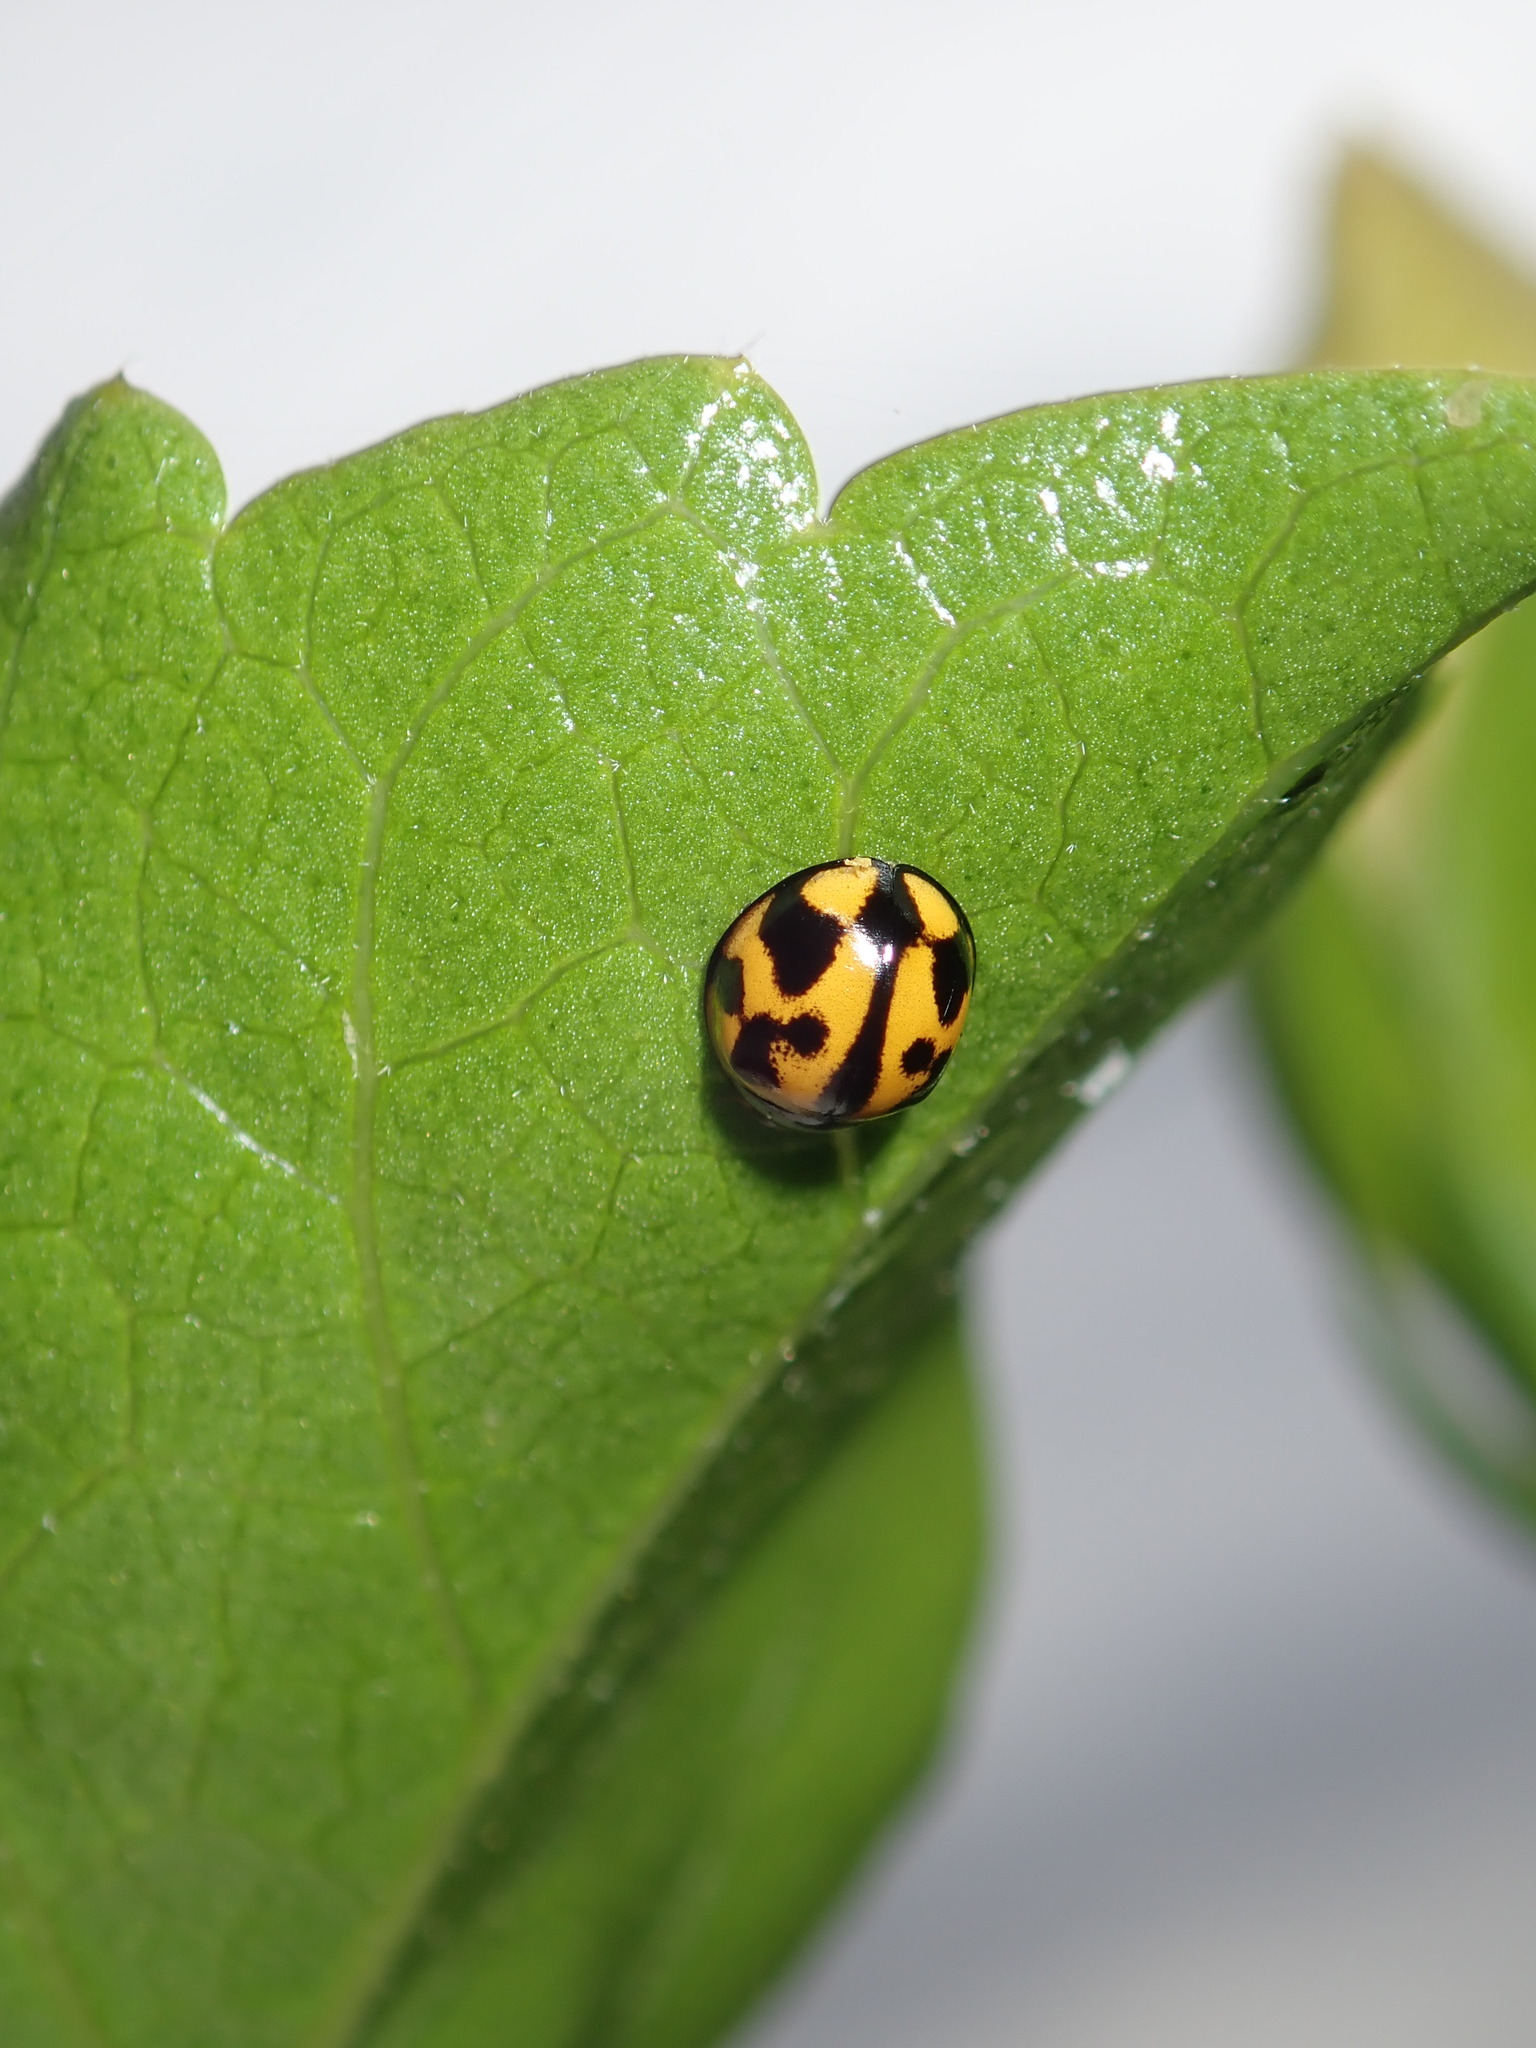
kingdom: Animalia
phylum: Arthropoda
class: Insecta
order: Coleoptera
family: Coccinellidae
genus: Coelophora
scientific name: Coelophora inaequalis
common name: Common australian lady beetle
